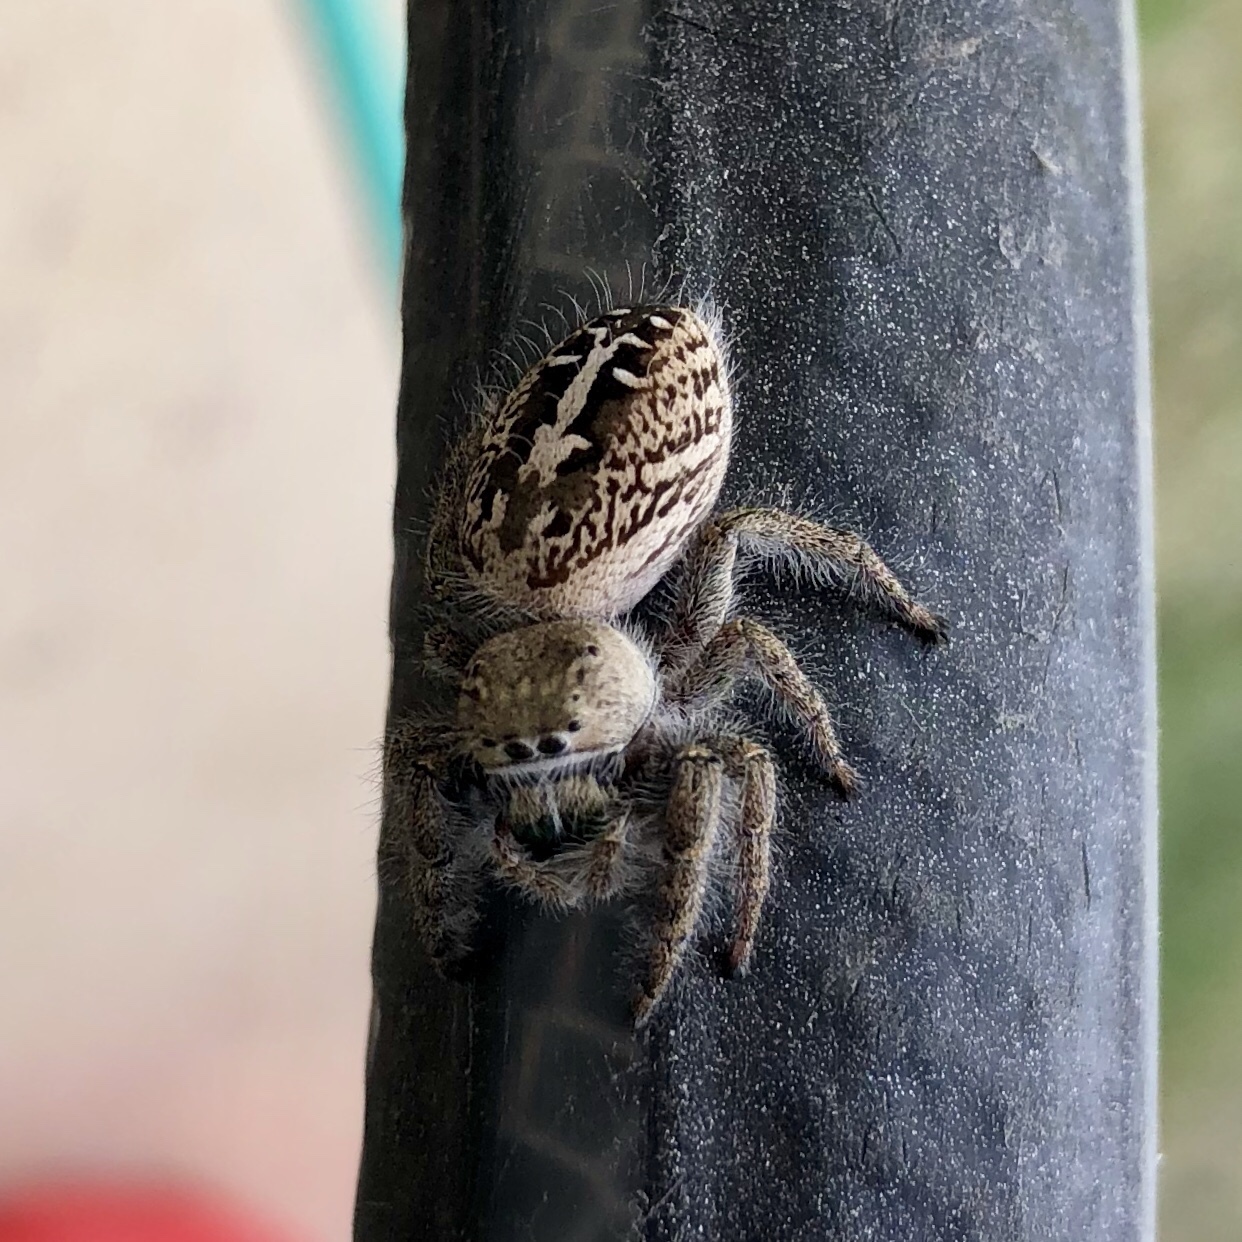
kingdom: Animalia
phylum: Arthropoda
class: Arachnida
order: Araneae
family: Salticidae
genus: Phidippus
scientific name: Phidippus texanus
